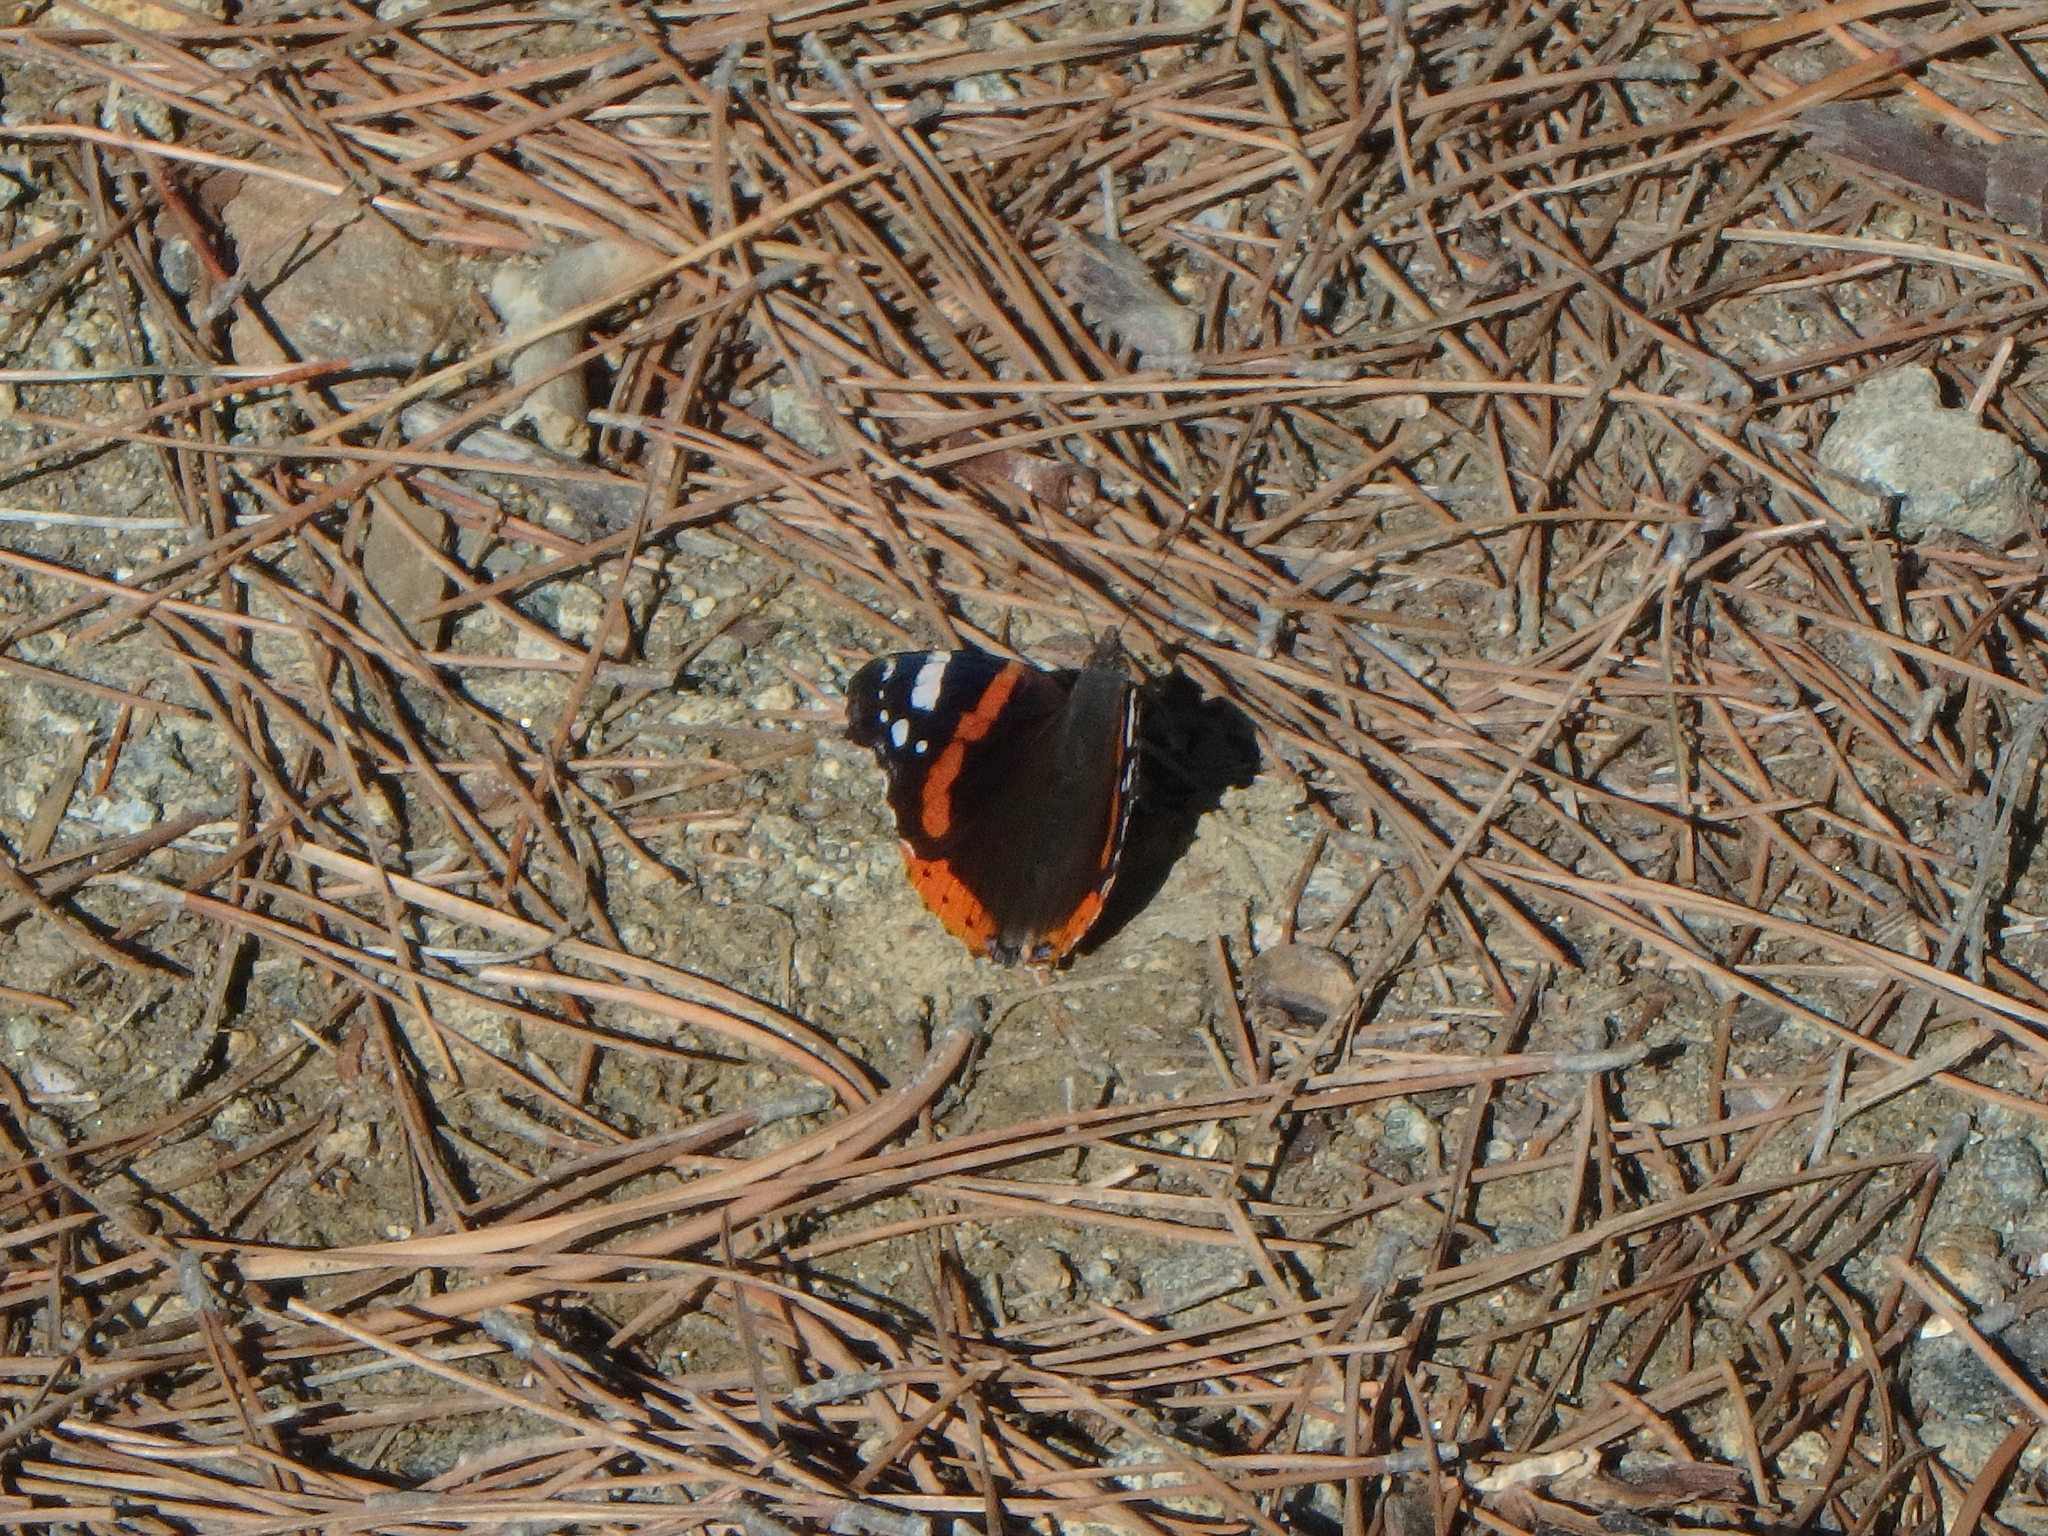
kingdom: Animalia
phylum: Arthropoda
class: Insecta
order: Lepidoptera
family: Nymphalidae
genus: Vanessa
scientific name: Vanessa atalanta
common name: Red admiral
